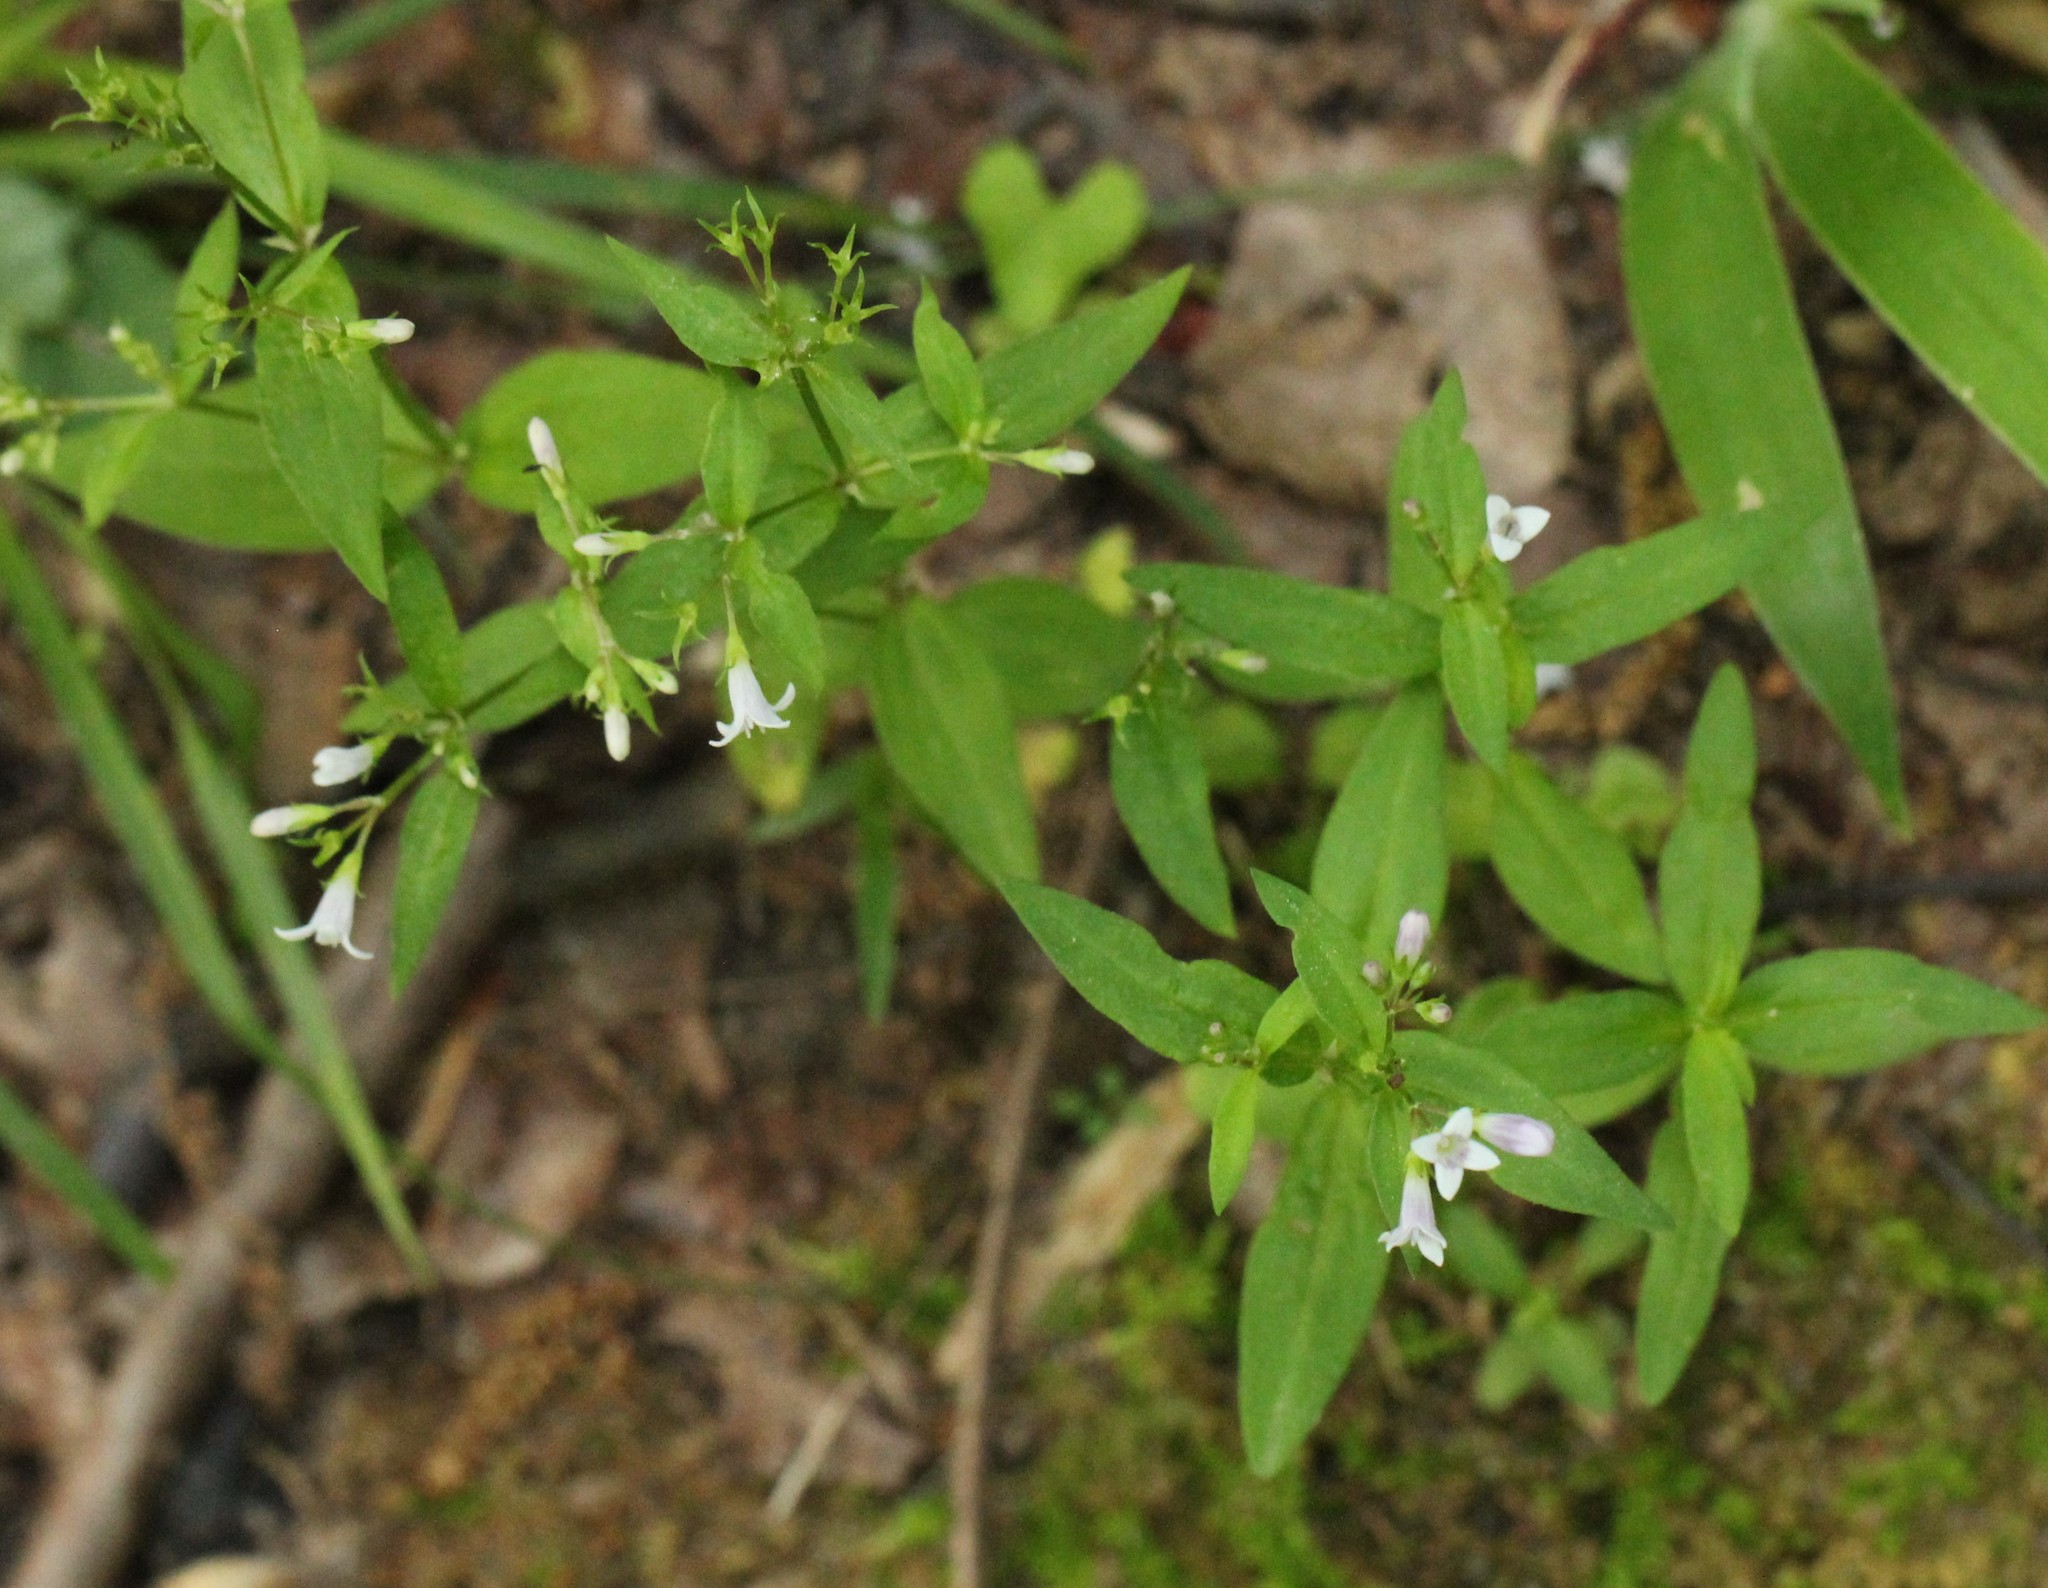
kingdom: Plantae
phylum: Tracheophyta
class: Magnoliopsida
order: Gentianales
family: Rubiaceae
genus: Houstonia
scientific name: Houstonia purpurea
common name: Summer bluet
